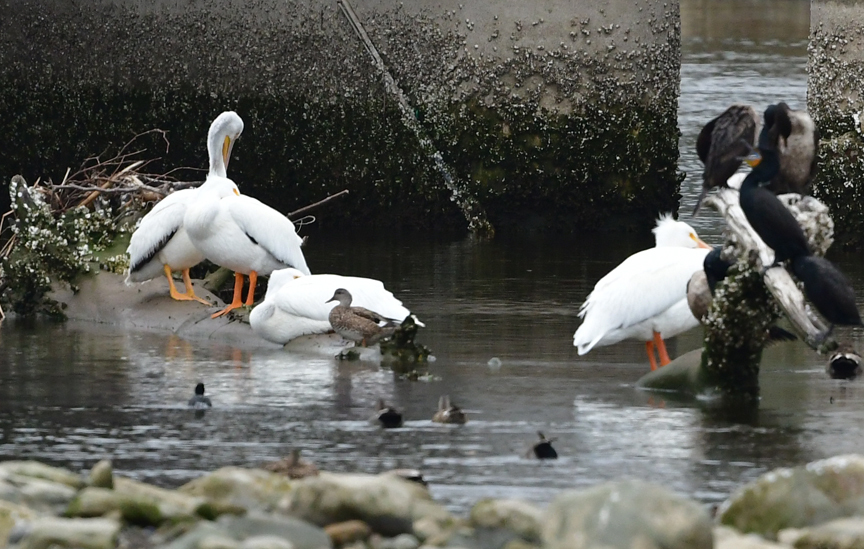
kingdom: Animalia
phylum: Chordata
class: Aves
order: Pelecaniformes
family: Pelecanidae
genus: Pelecanus
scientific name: Pelecanus erythrorhynchos
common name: American white pelican
